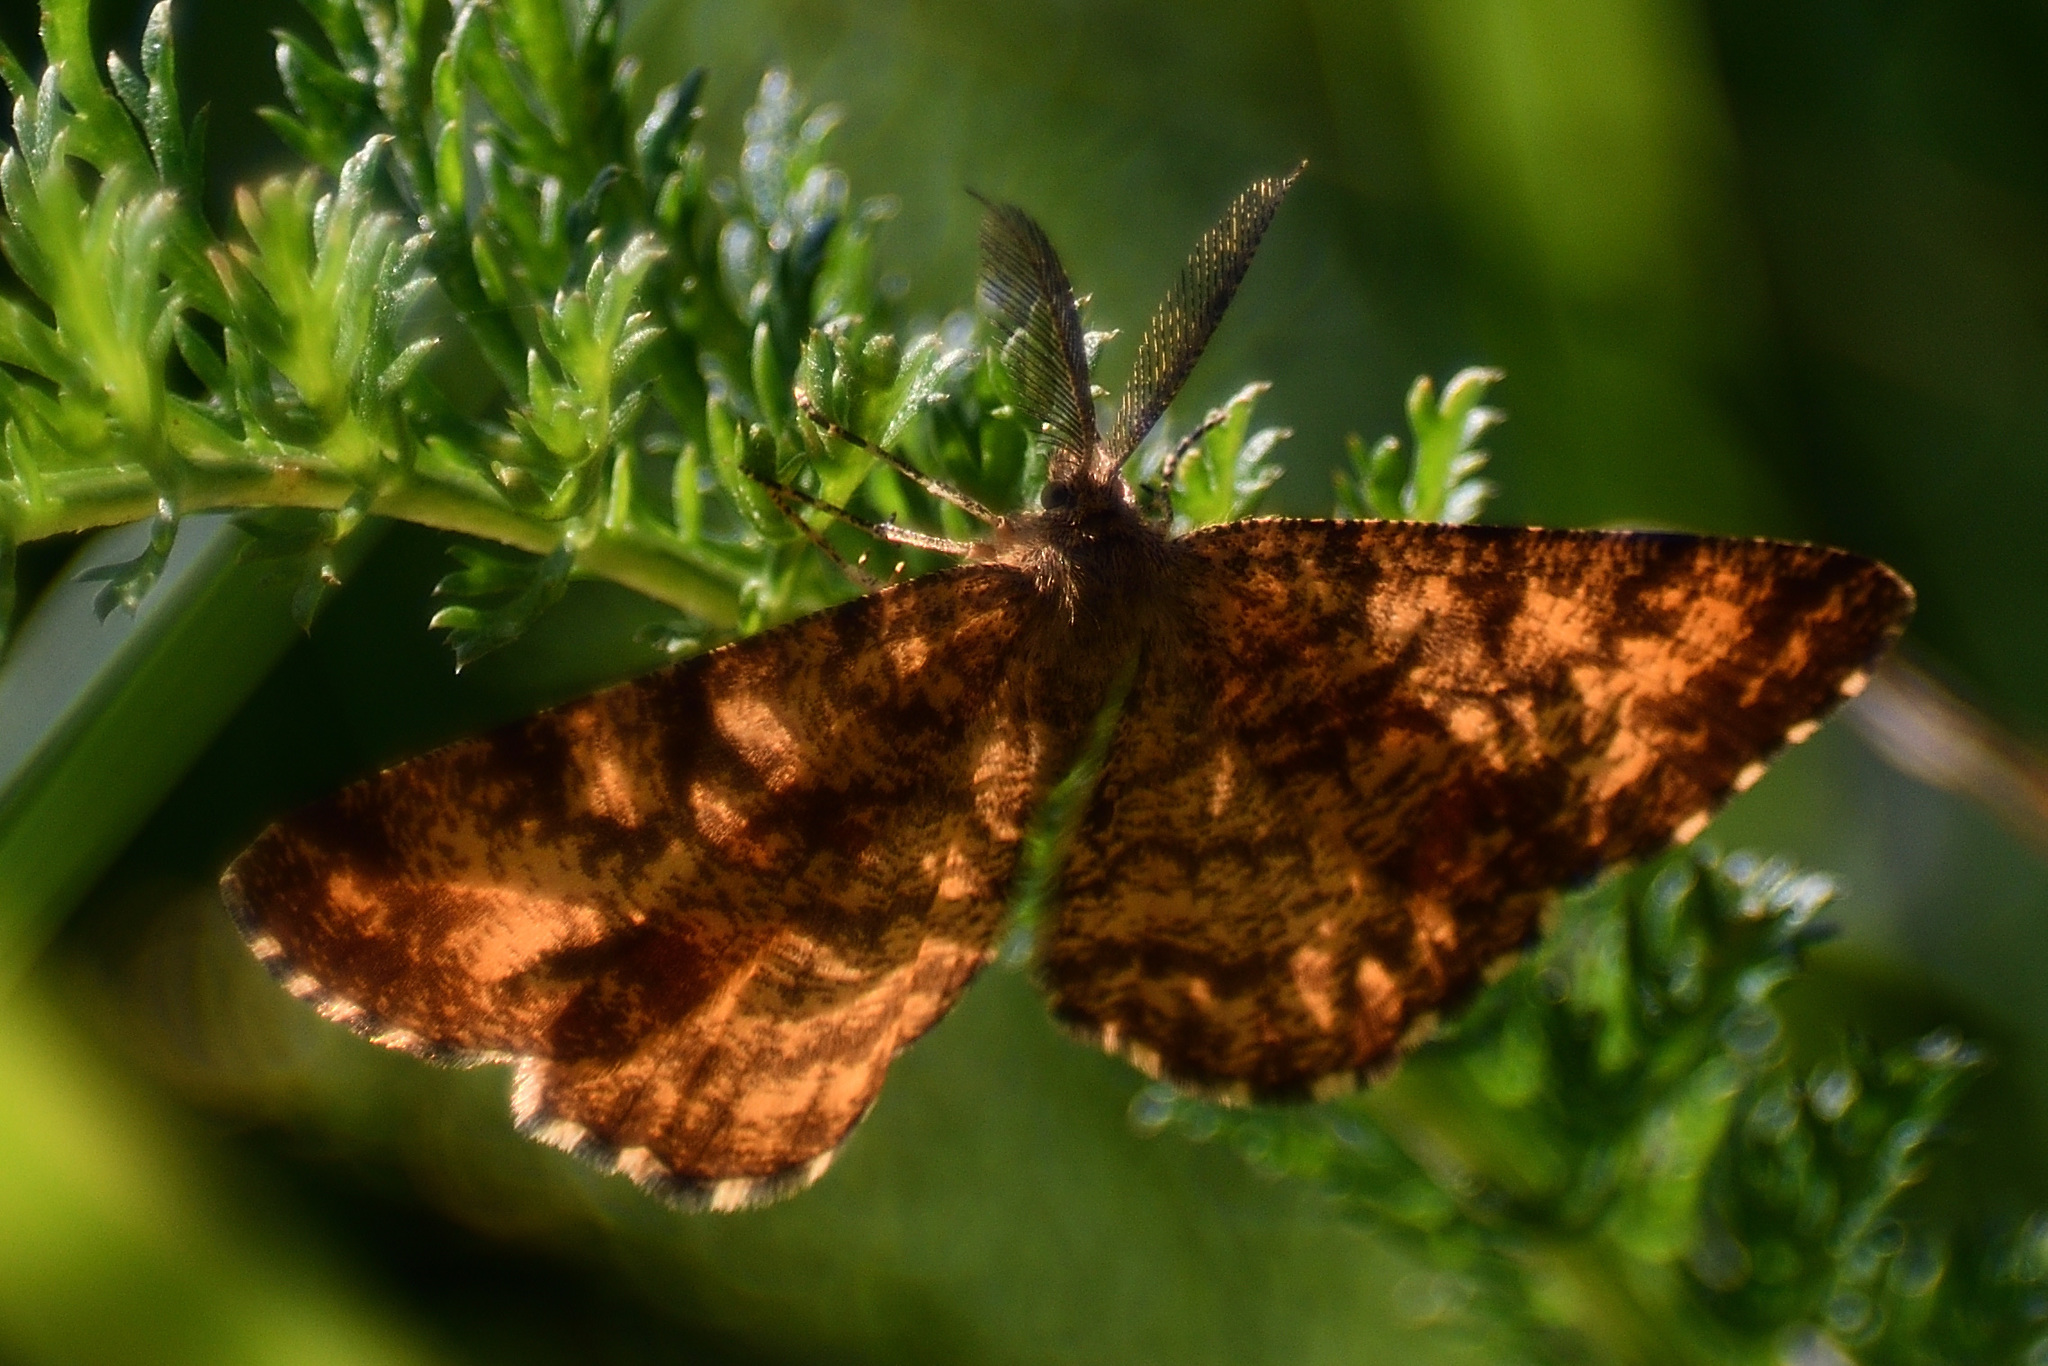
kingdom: Animalia
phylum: Arthropoda
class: Insecta
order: Lepidoptera
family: Geometridae
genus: Ematurga
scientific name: Ematurga atomaria
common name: Common heath
